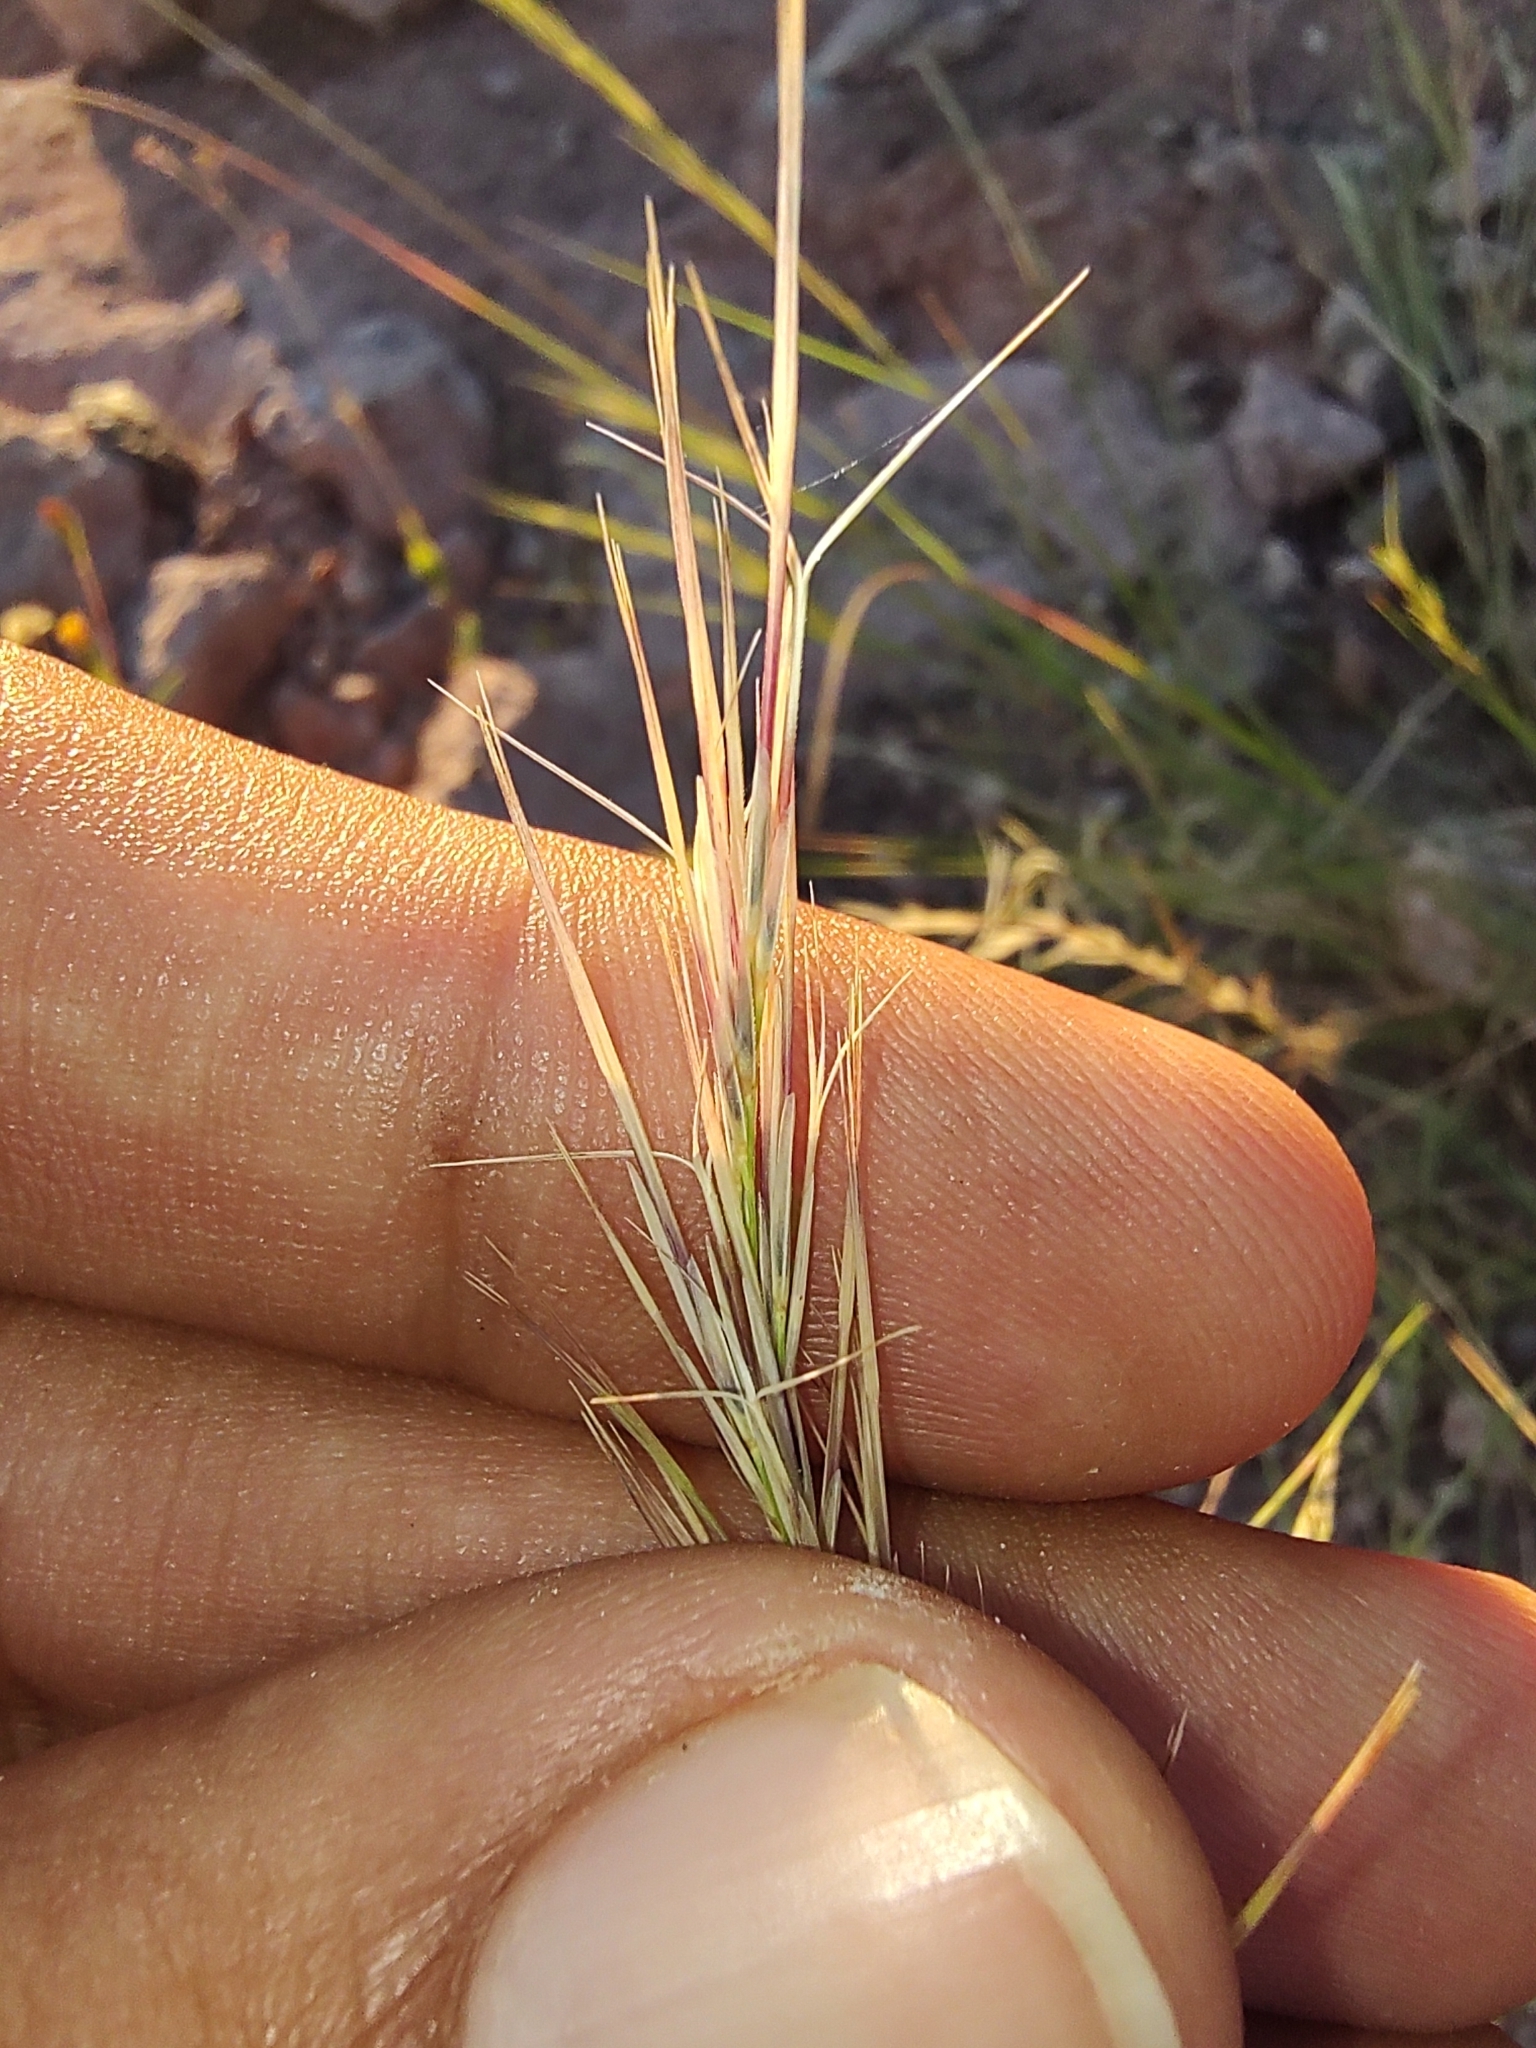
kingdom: Plantae
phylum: Tracheophyta
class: Liliopsida
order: Poales
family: Poaceae
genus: Aristida
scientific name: Aristida adscensionis
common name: Sixweeks threeawn
